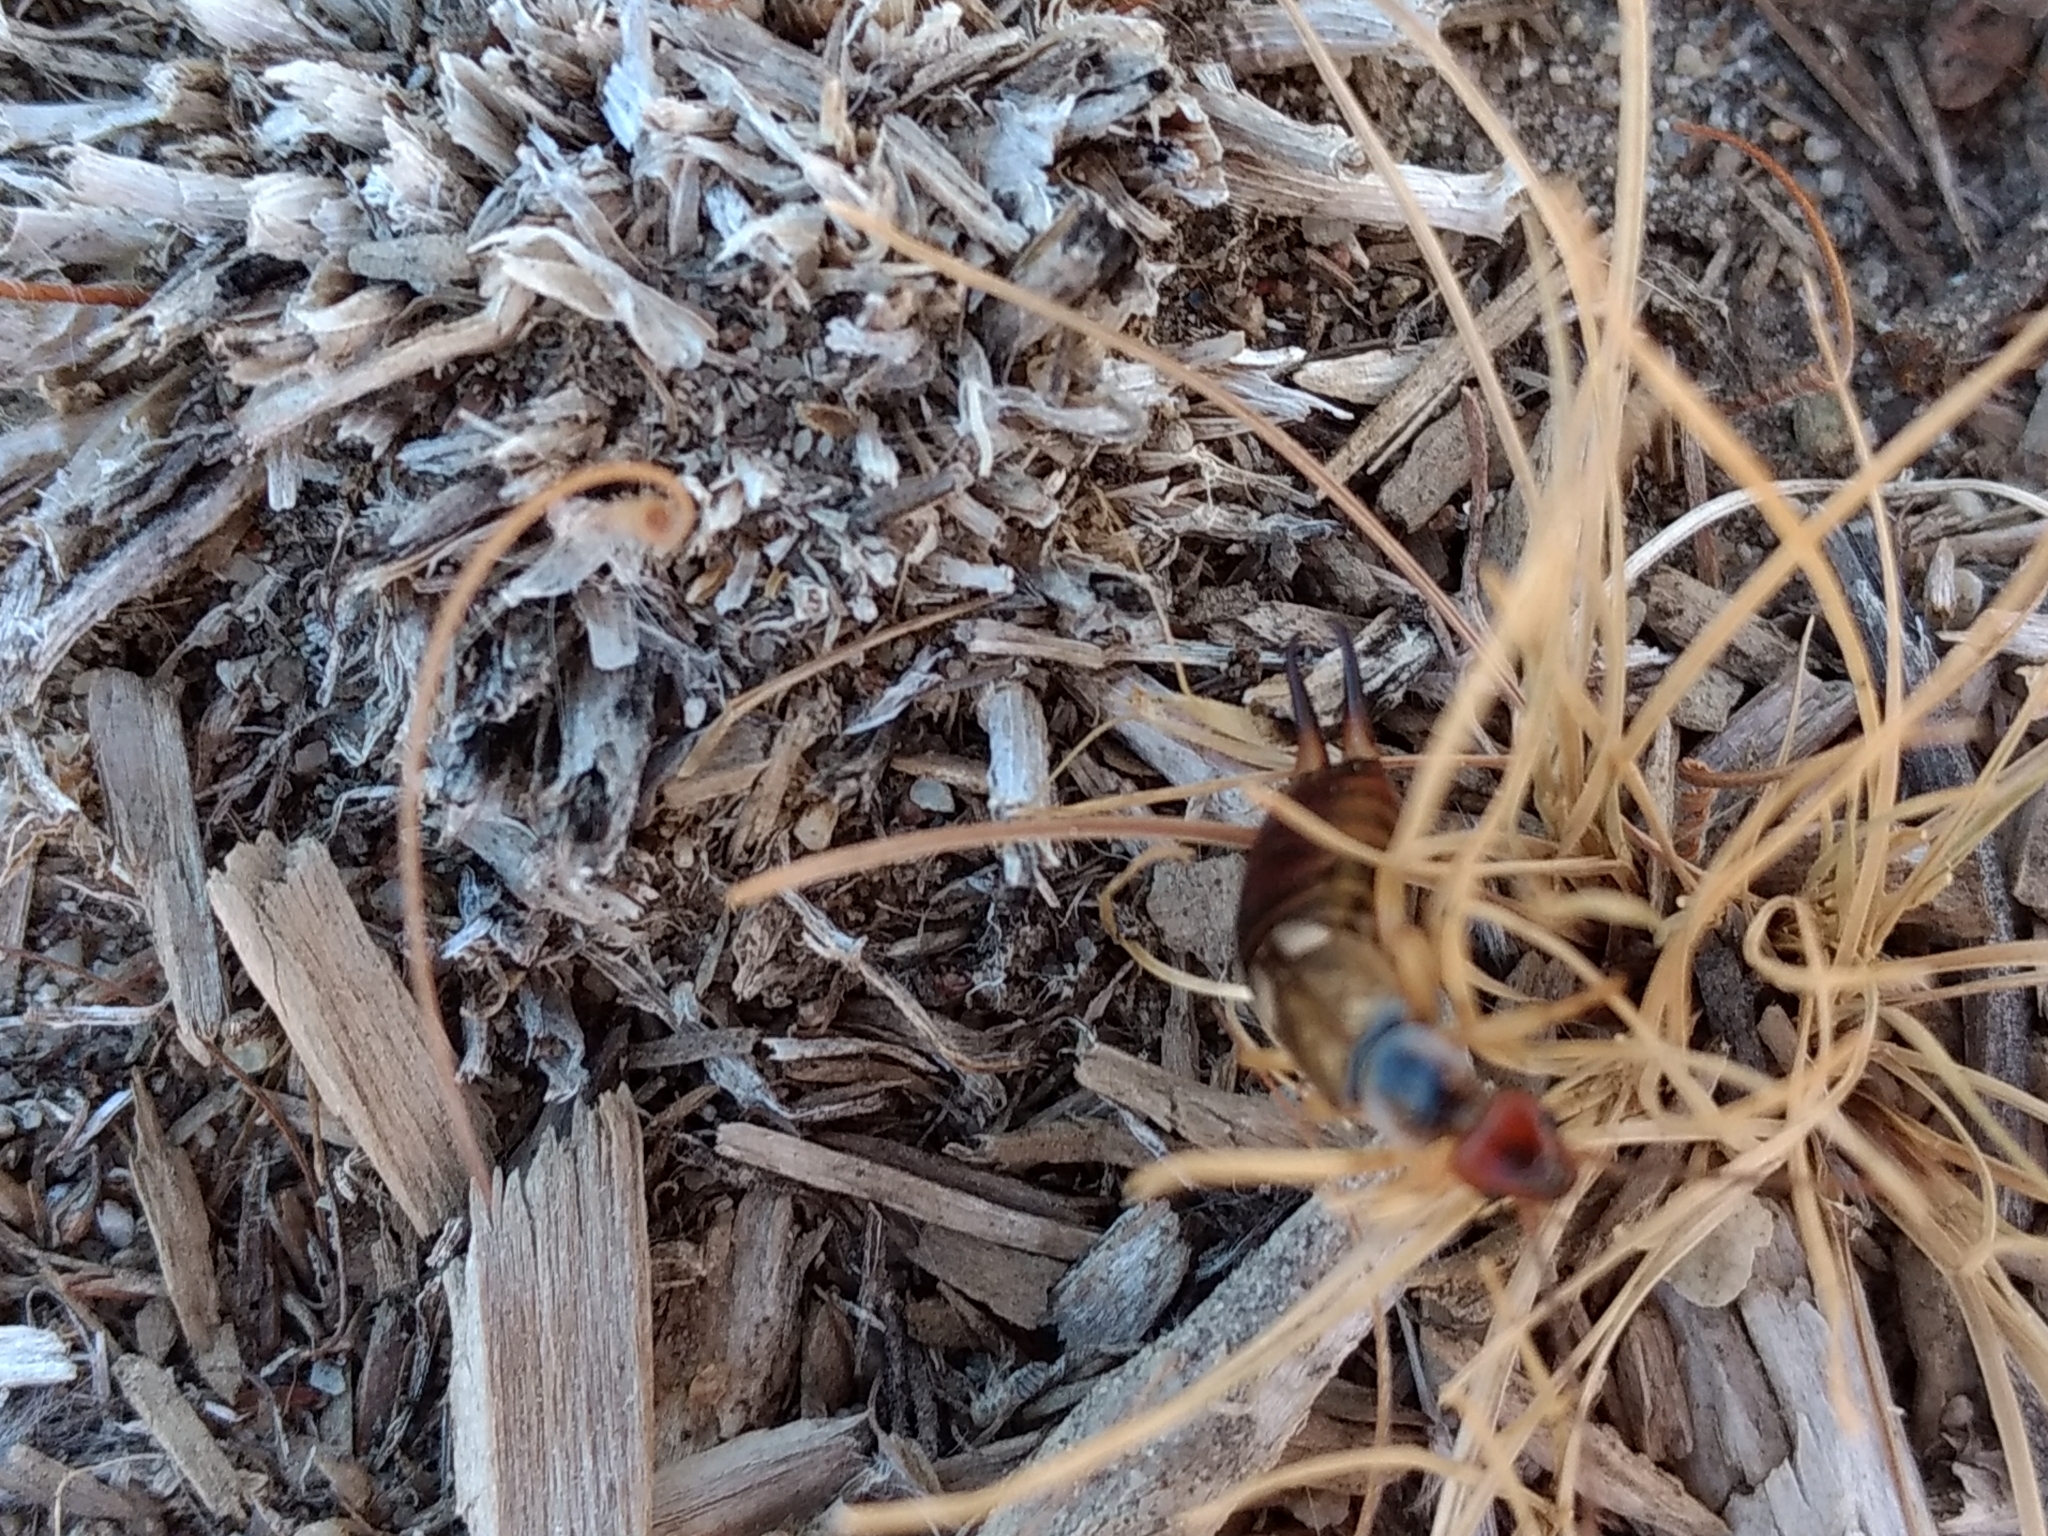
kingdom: Animalia
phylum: Arthropoda
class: Insecta
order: Dermaptera
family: Forficulidae
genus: Forficula
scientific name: Forficula
